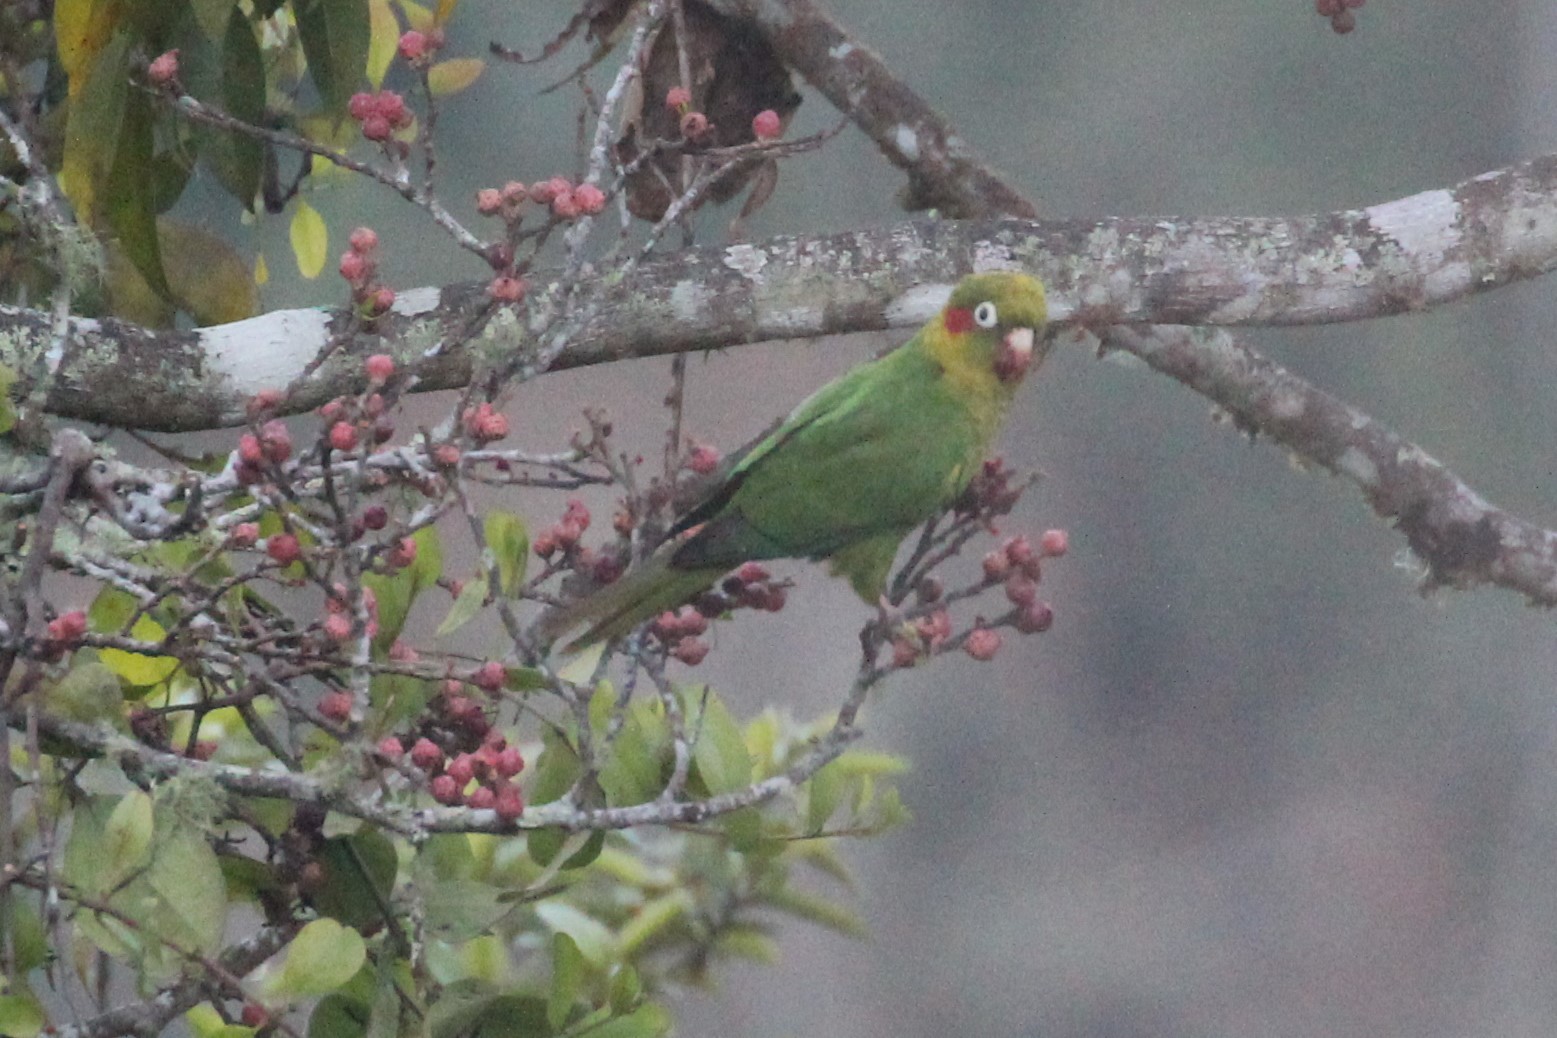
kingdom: Animalia
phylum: Chordata
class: Aves
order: Psittaciformes
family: Psittacidae
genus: Pyrrhura
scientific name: Pyrrhura hoffmanni
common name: Sulphur-winged parakeet
